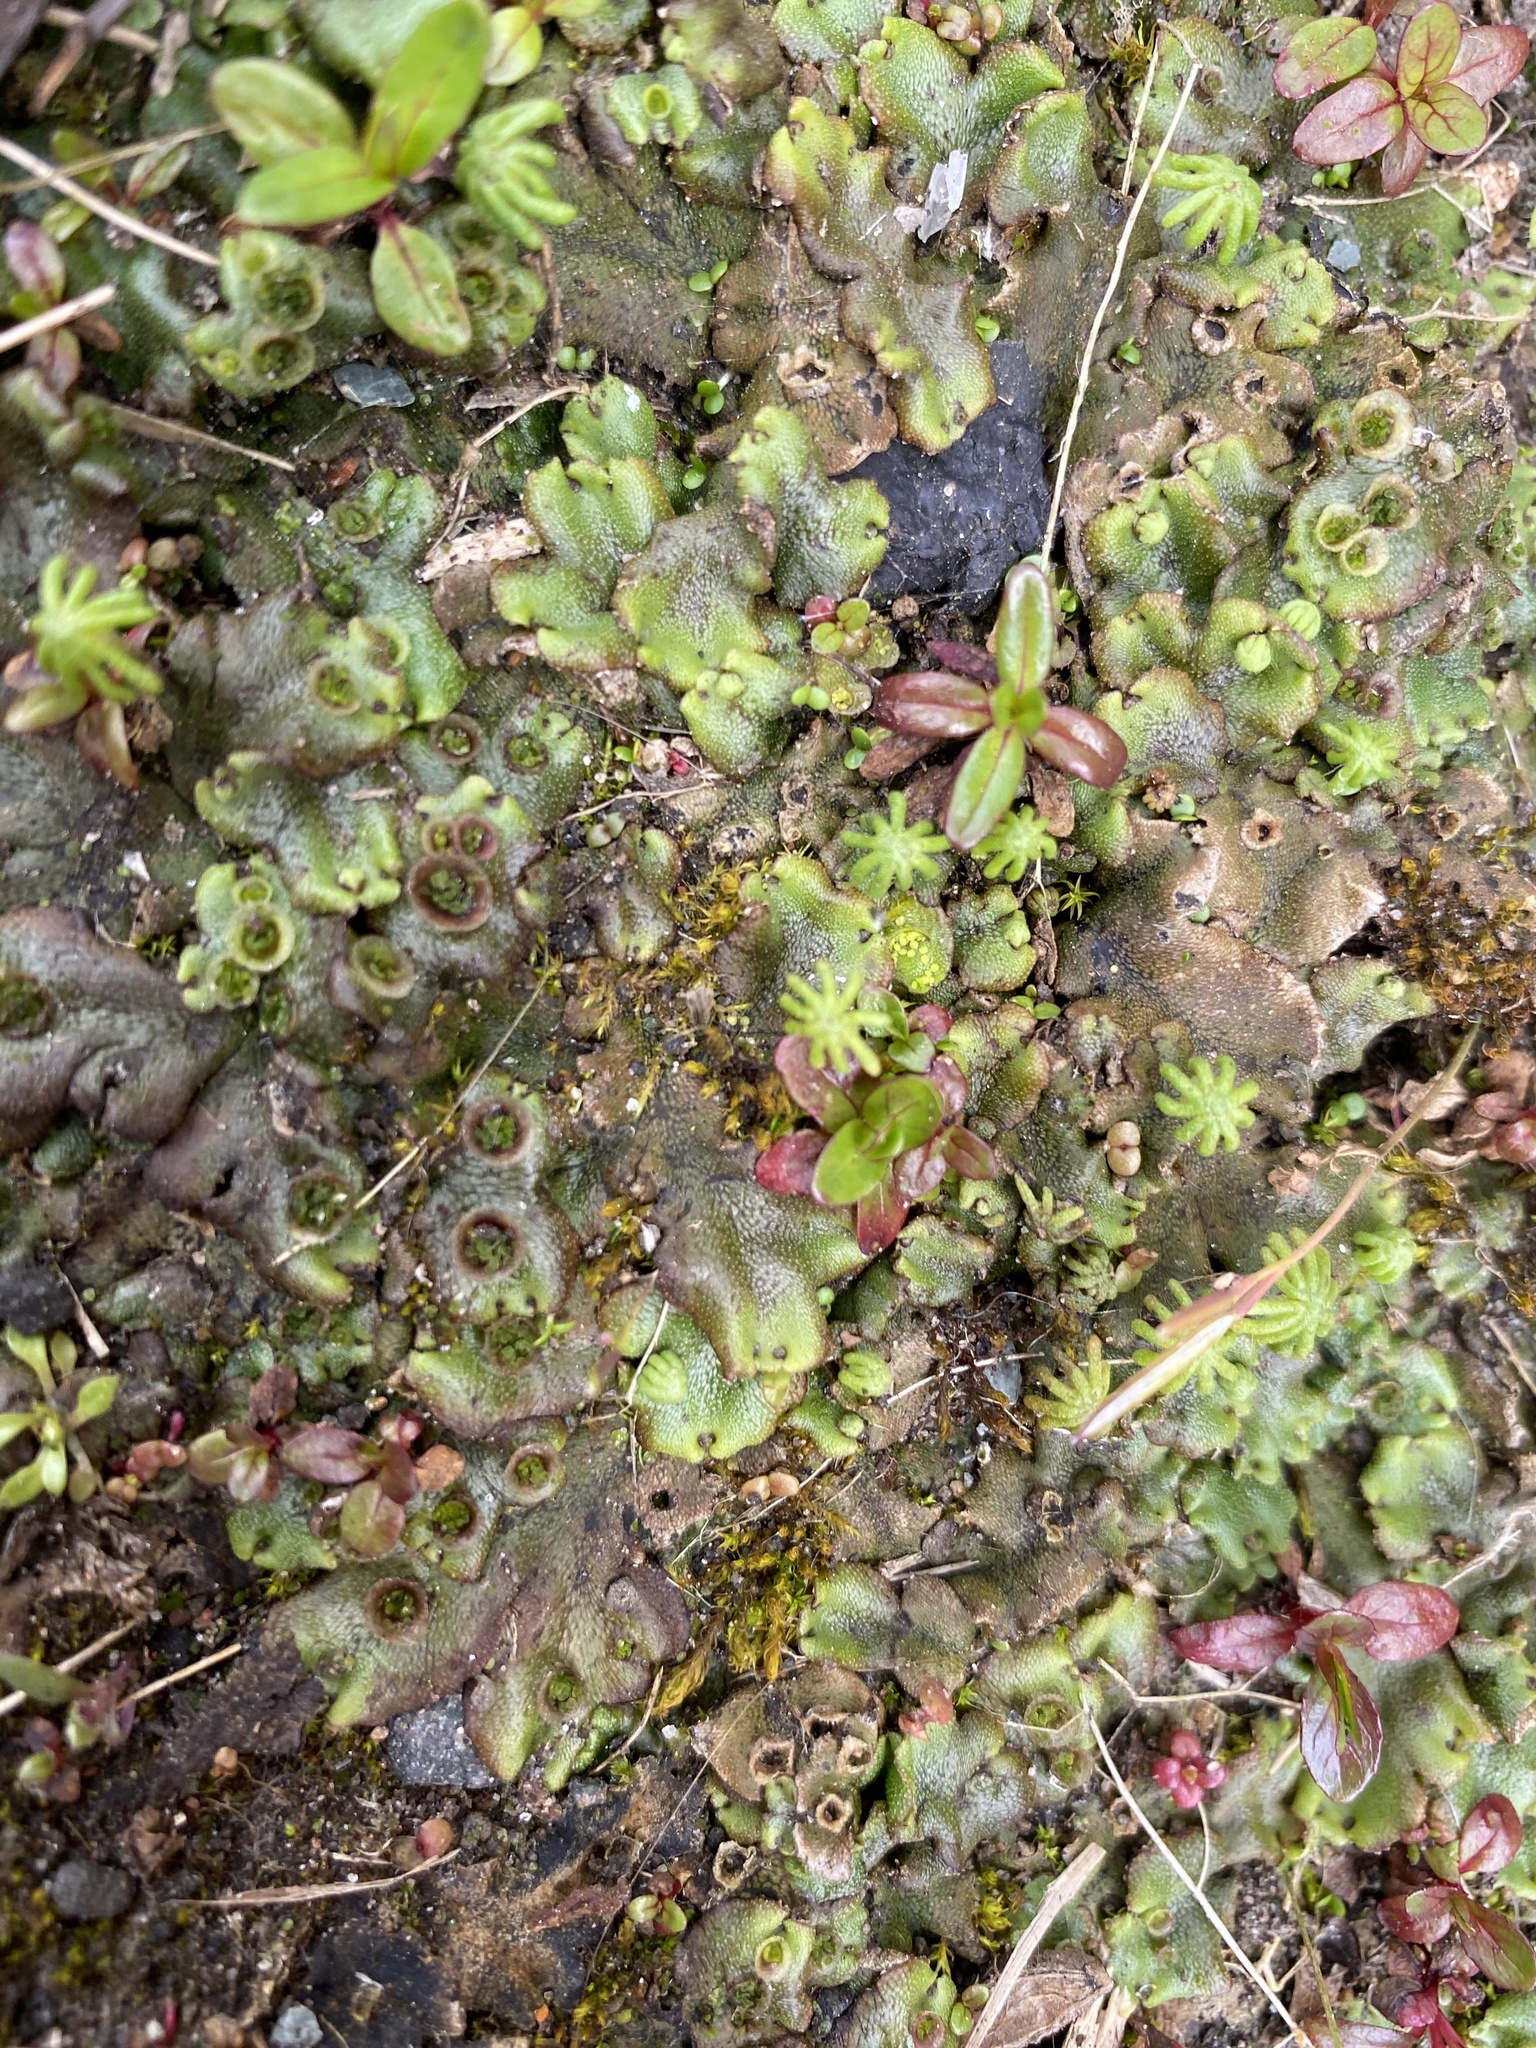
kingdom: Plantae
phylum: Marchantiophyta
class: Marchantiopsida
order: Marchantiales
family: Marchantiaceae
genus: Marchantia
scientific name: Marchantia polymorpha
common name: Common liverwort
